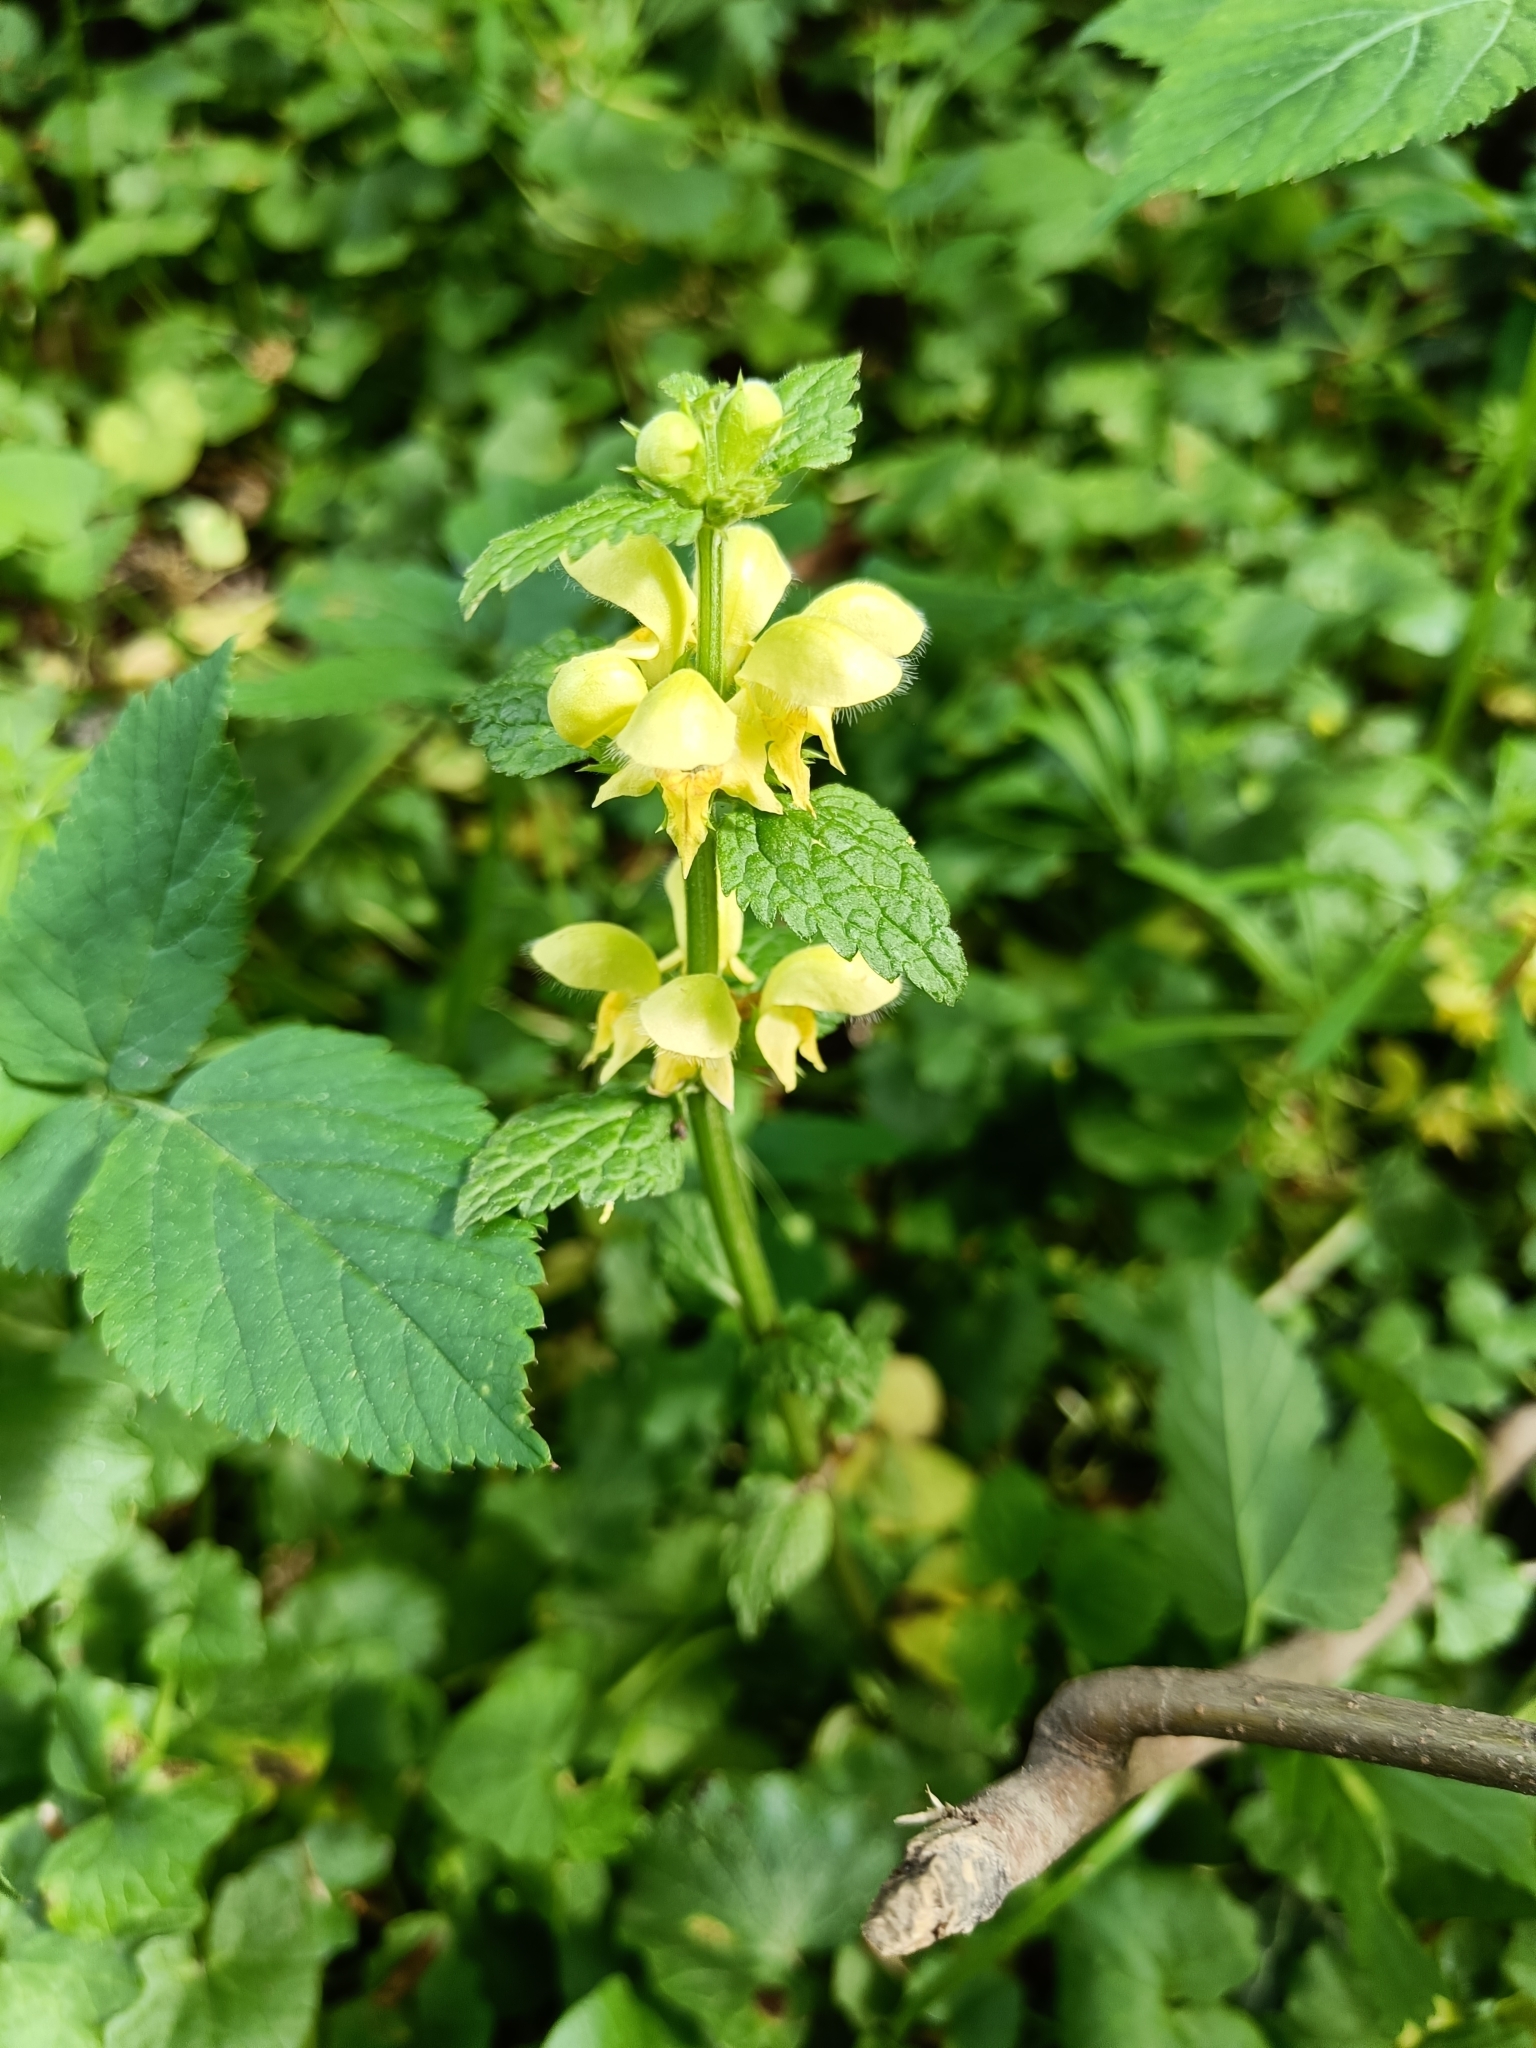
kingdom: Plantae
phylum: Tracheophyta
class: Magnoliopsida
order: Lamiales
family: Lamiaceae
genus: Lamium
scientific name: Lamium galeobdolon
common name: Yellow archangel
